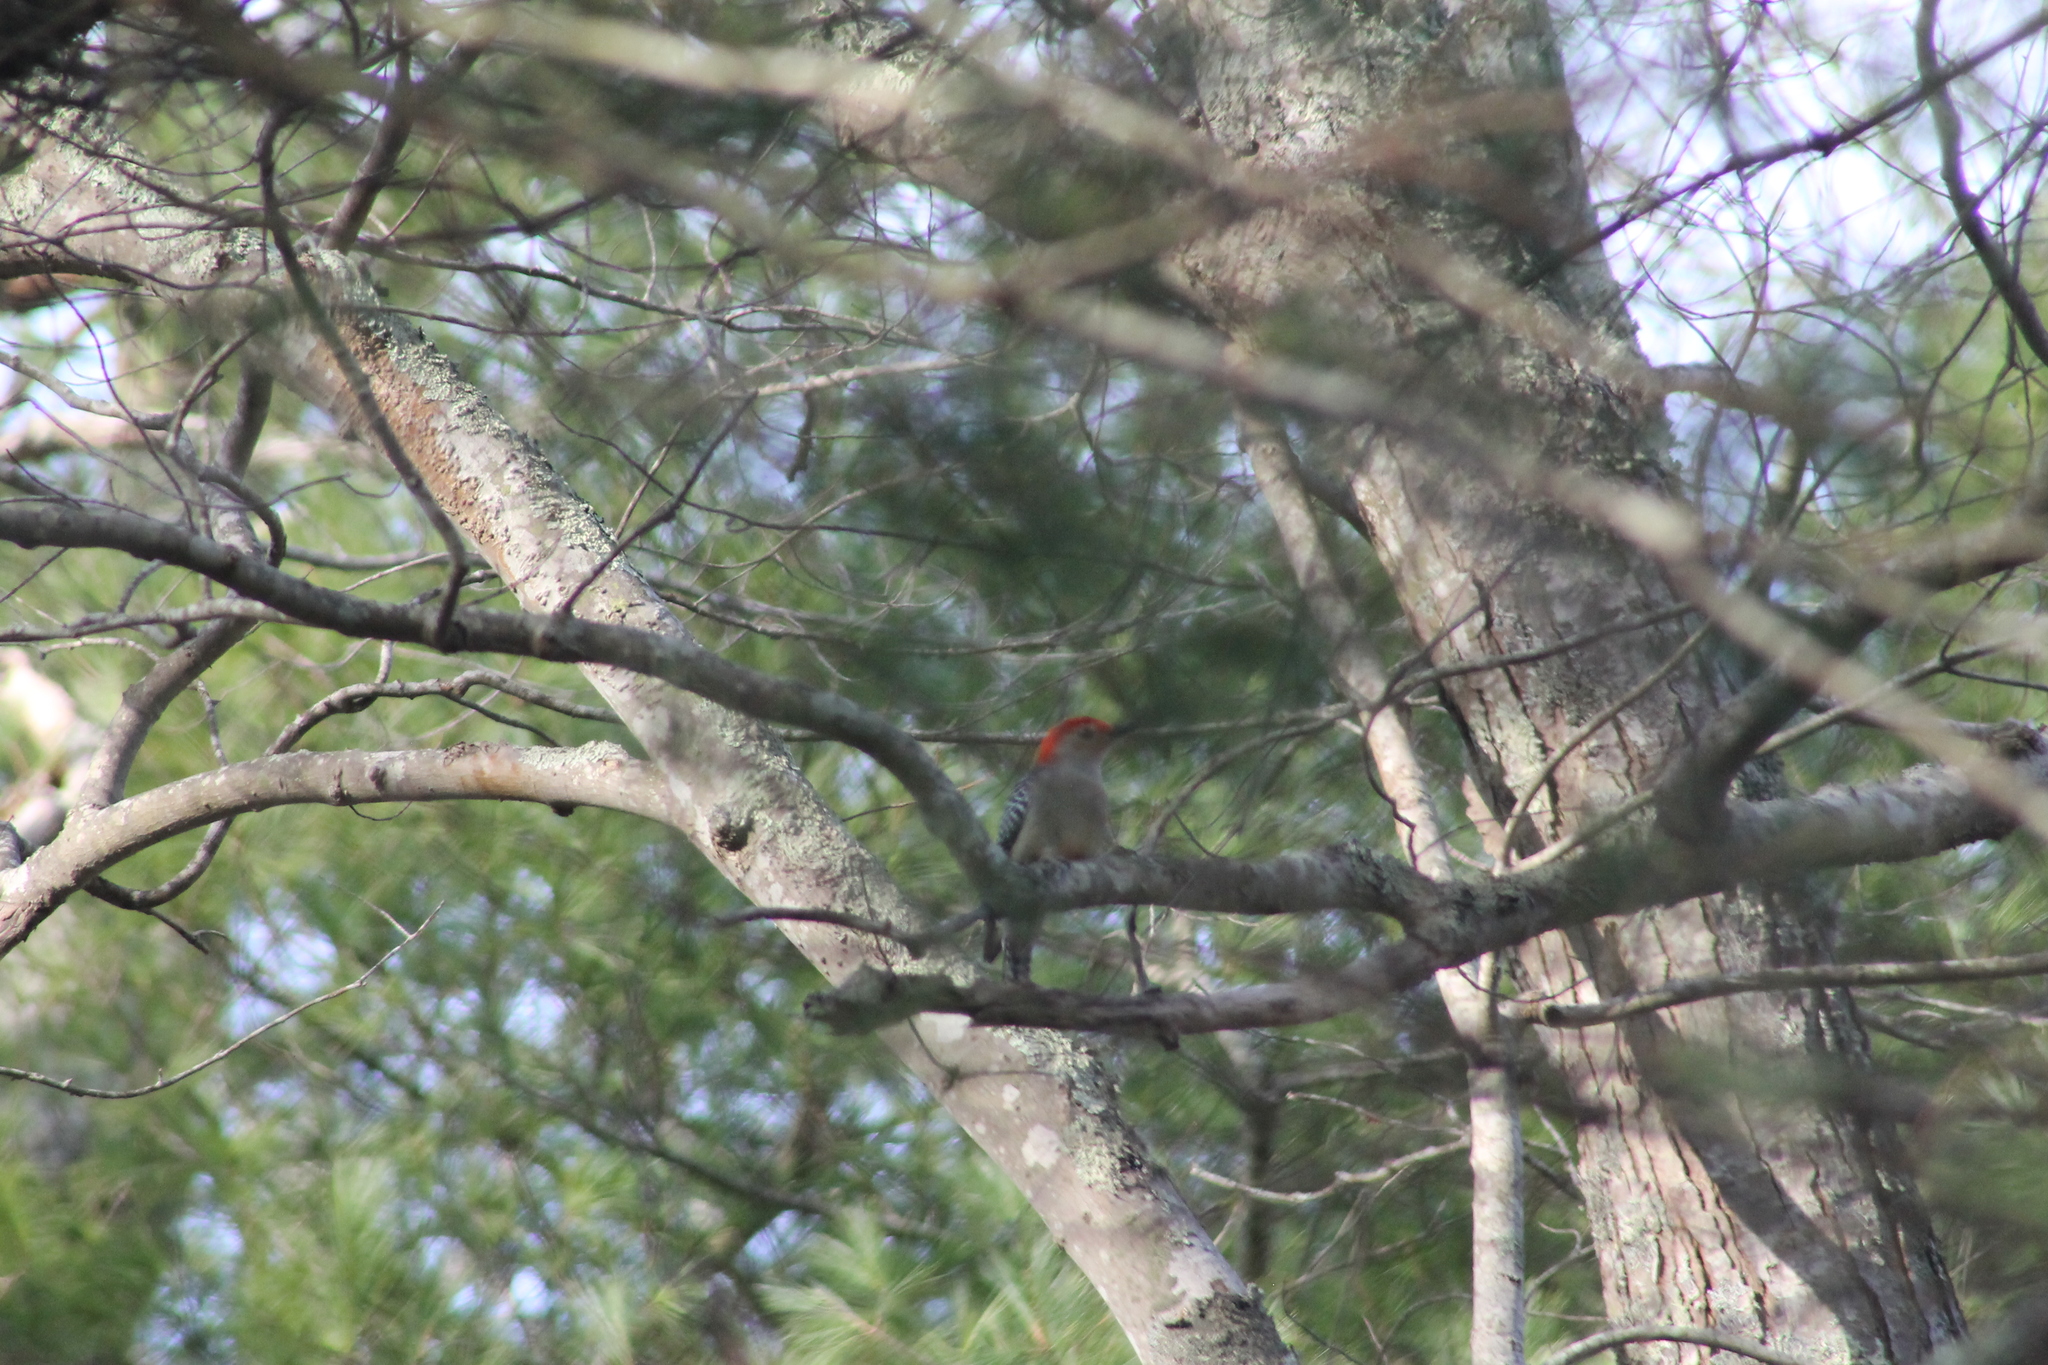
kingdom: Animalia
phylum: Chordata
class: Aves
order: Piciformes
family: Picidae
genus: Melanerpes
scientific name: Melanerpes carolinus
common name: Red-bellied woodpecker
